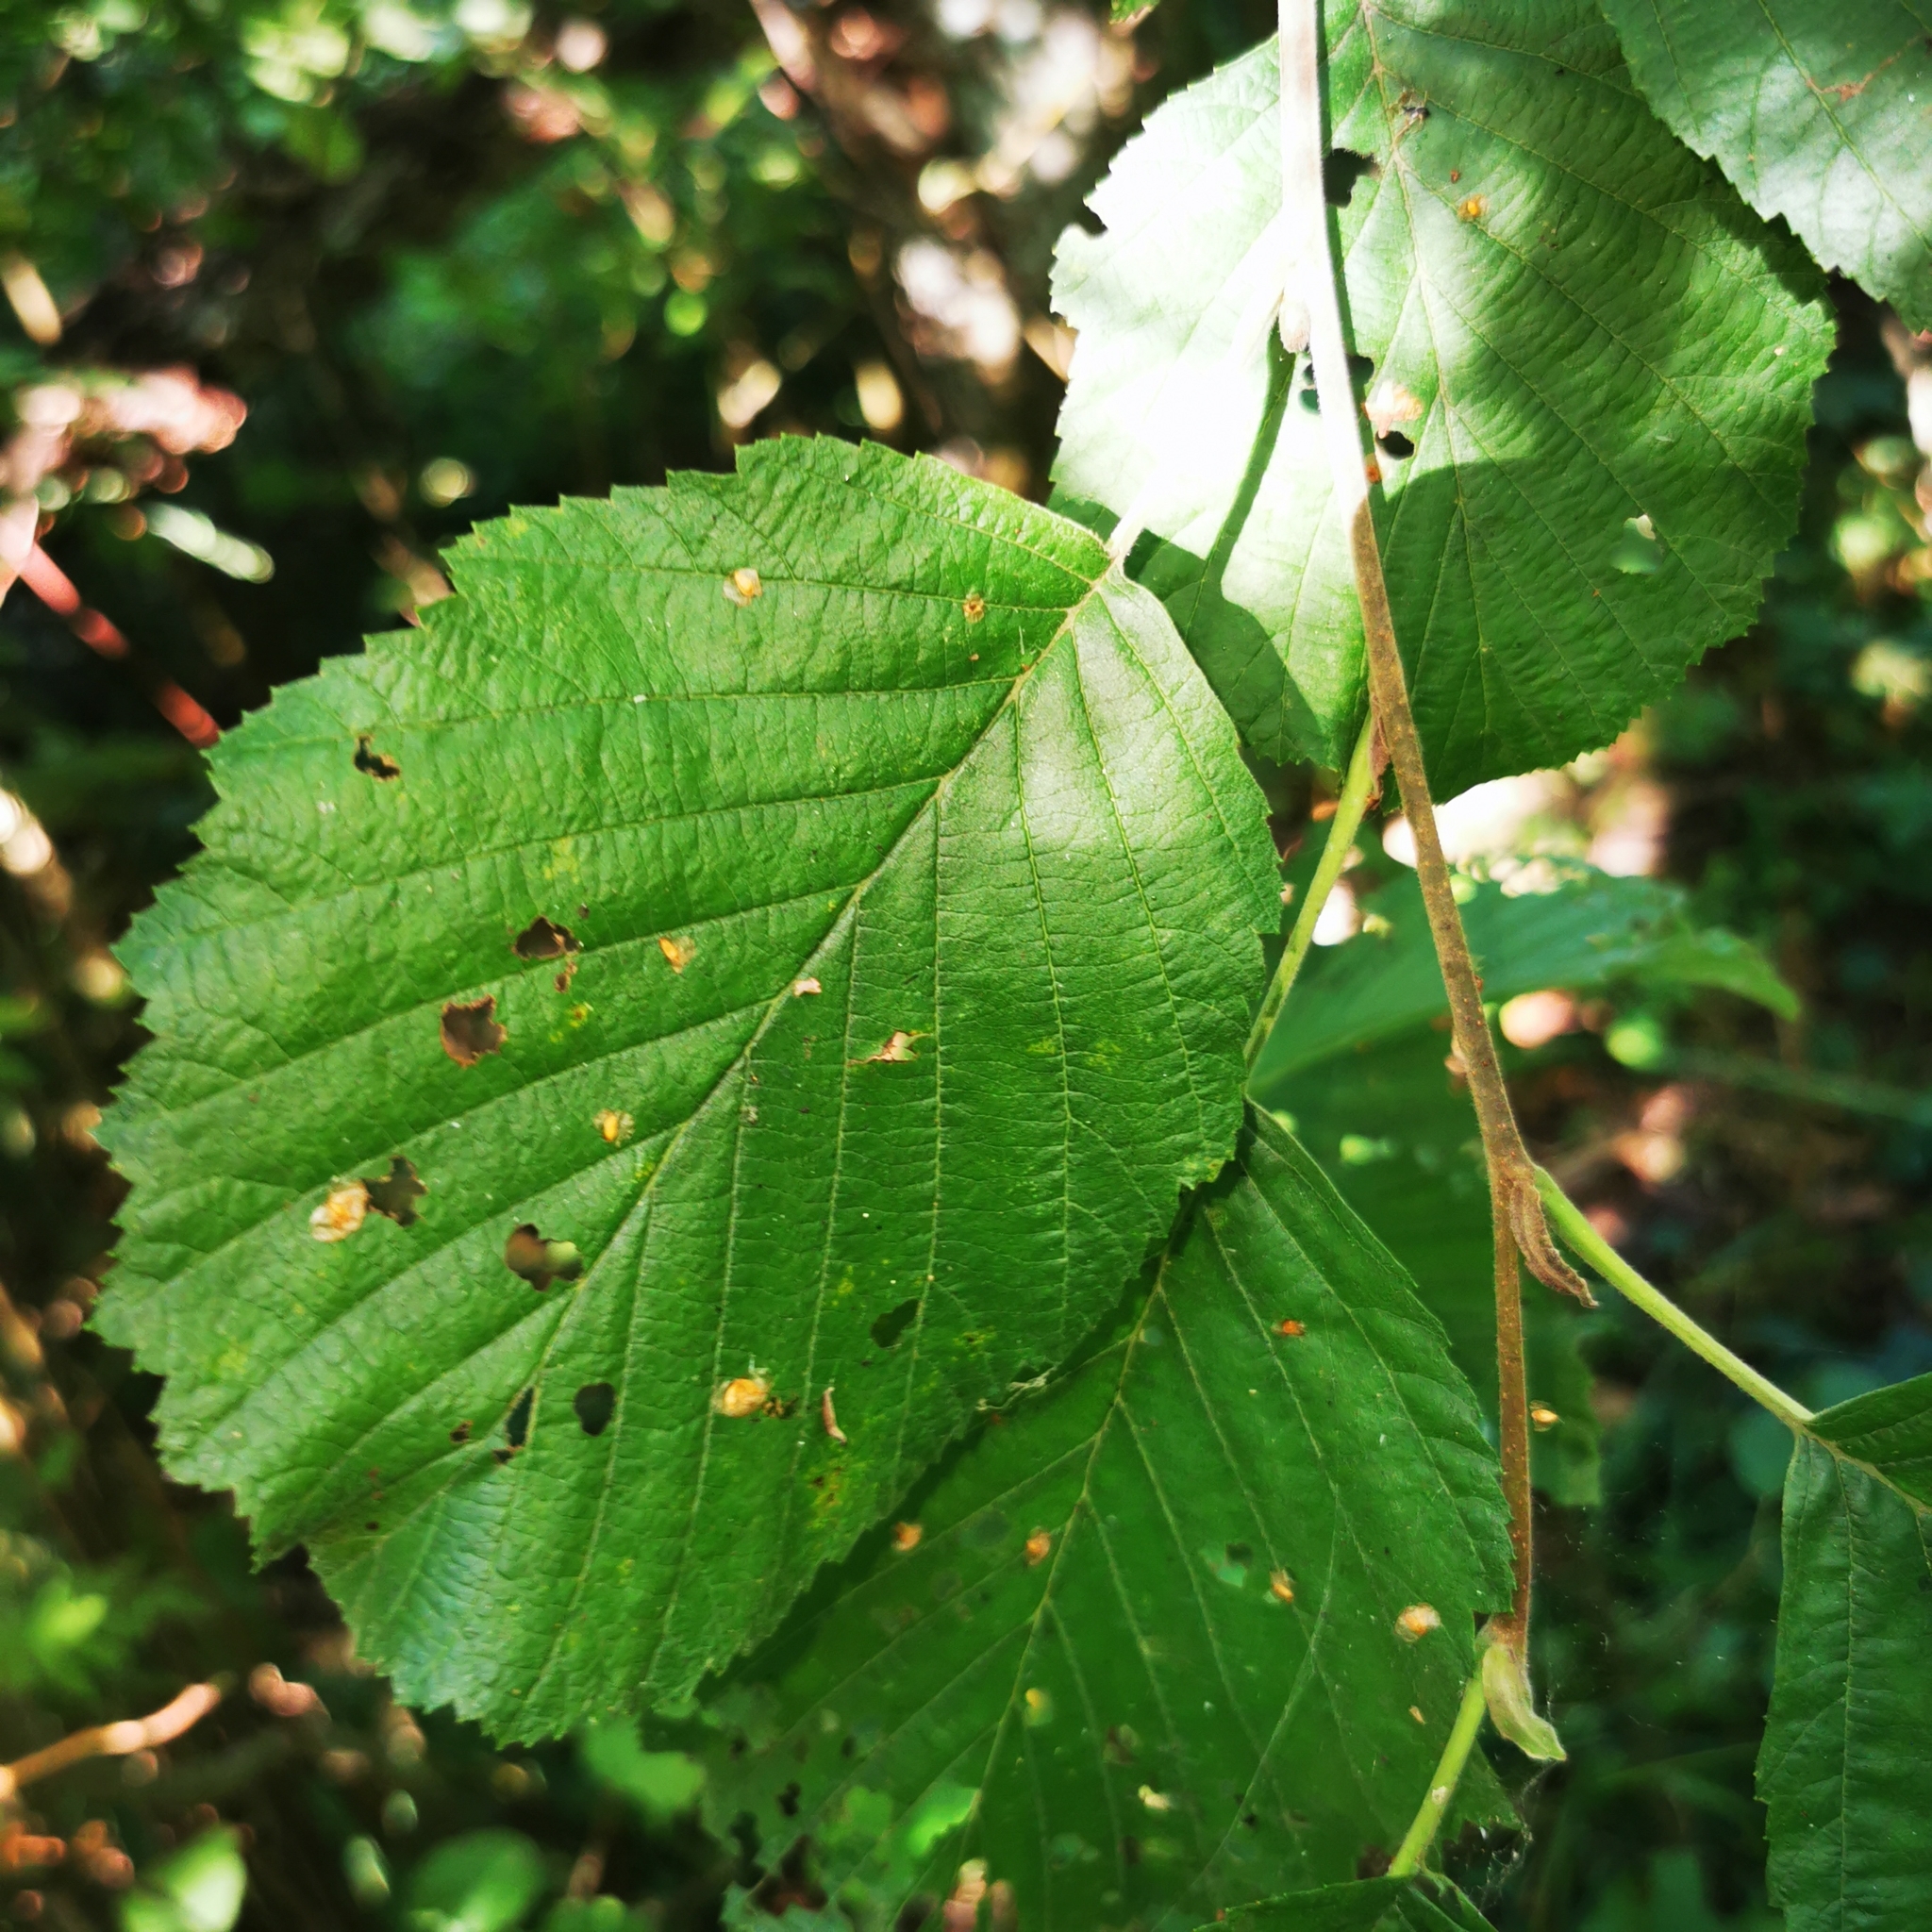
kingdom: Plantae
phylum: Tracheophyta
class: Magnoliopsida
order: Fagales
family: Betulaceae
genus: Alnus
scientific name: Alnus incana
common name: Grey alder
